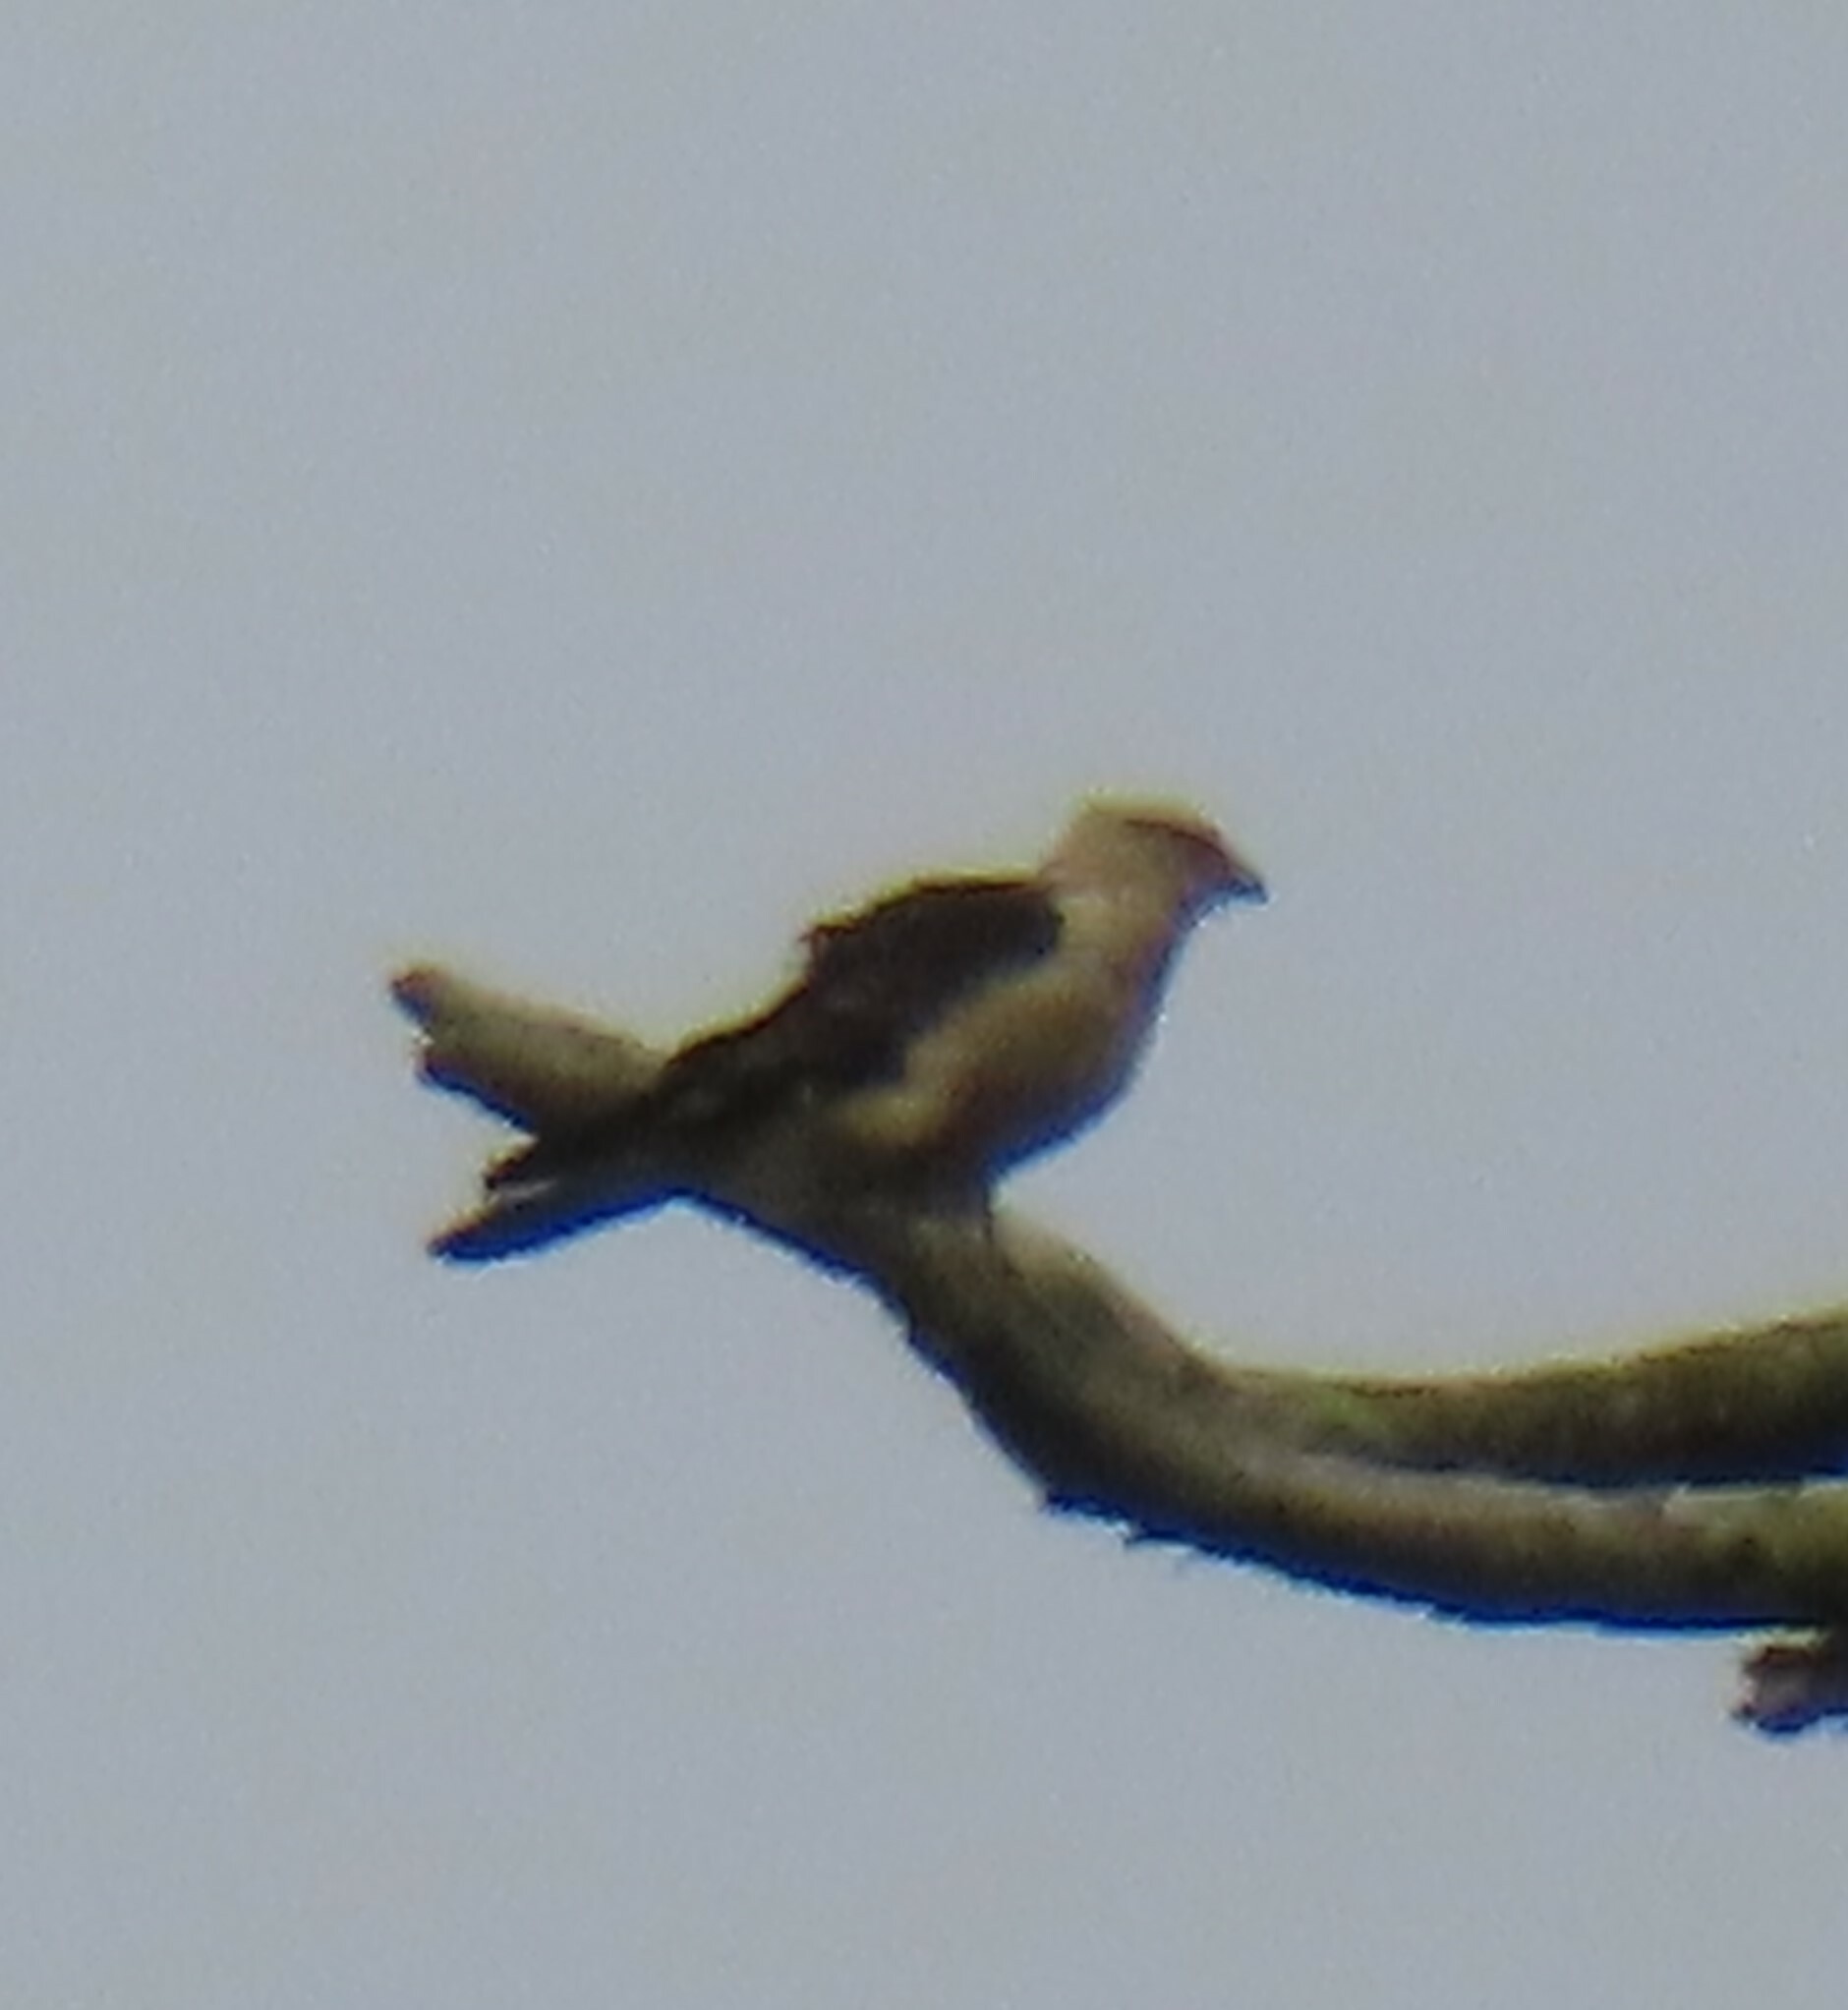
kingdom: Animalia
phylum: Chordata
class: Aves
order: Falconiformes
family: Falconidae
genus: Daptrius
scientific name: Daptrius
